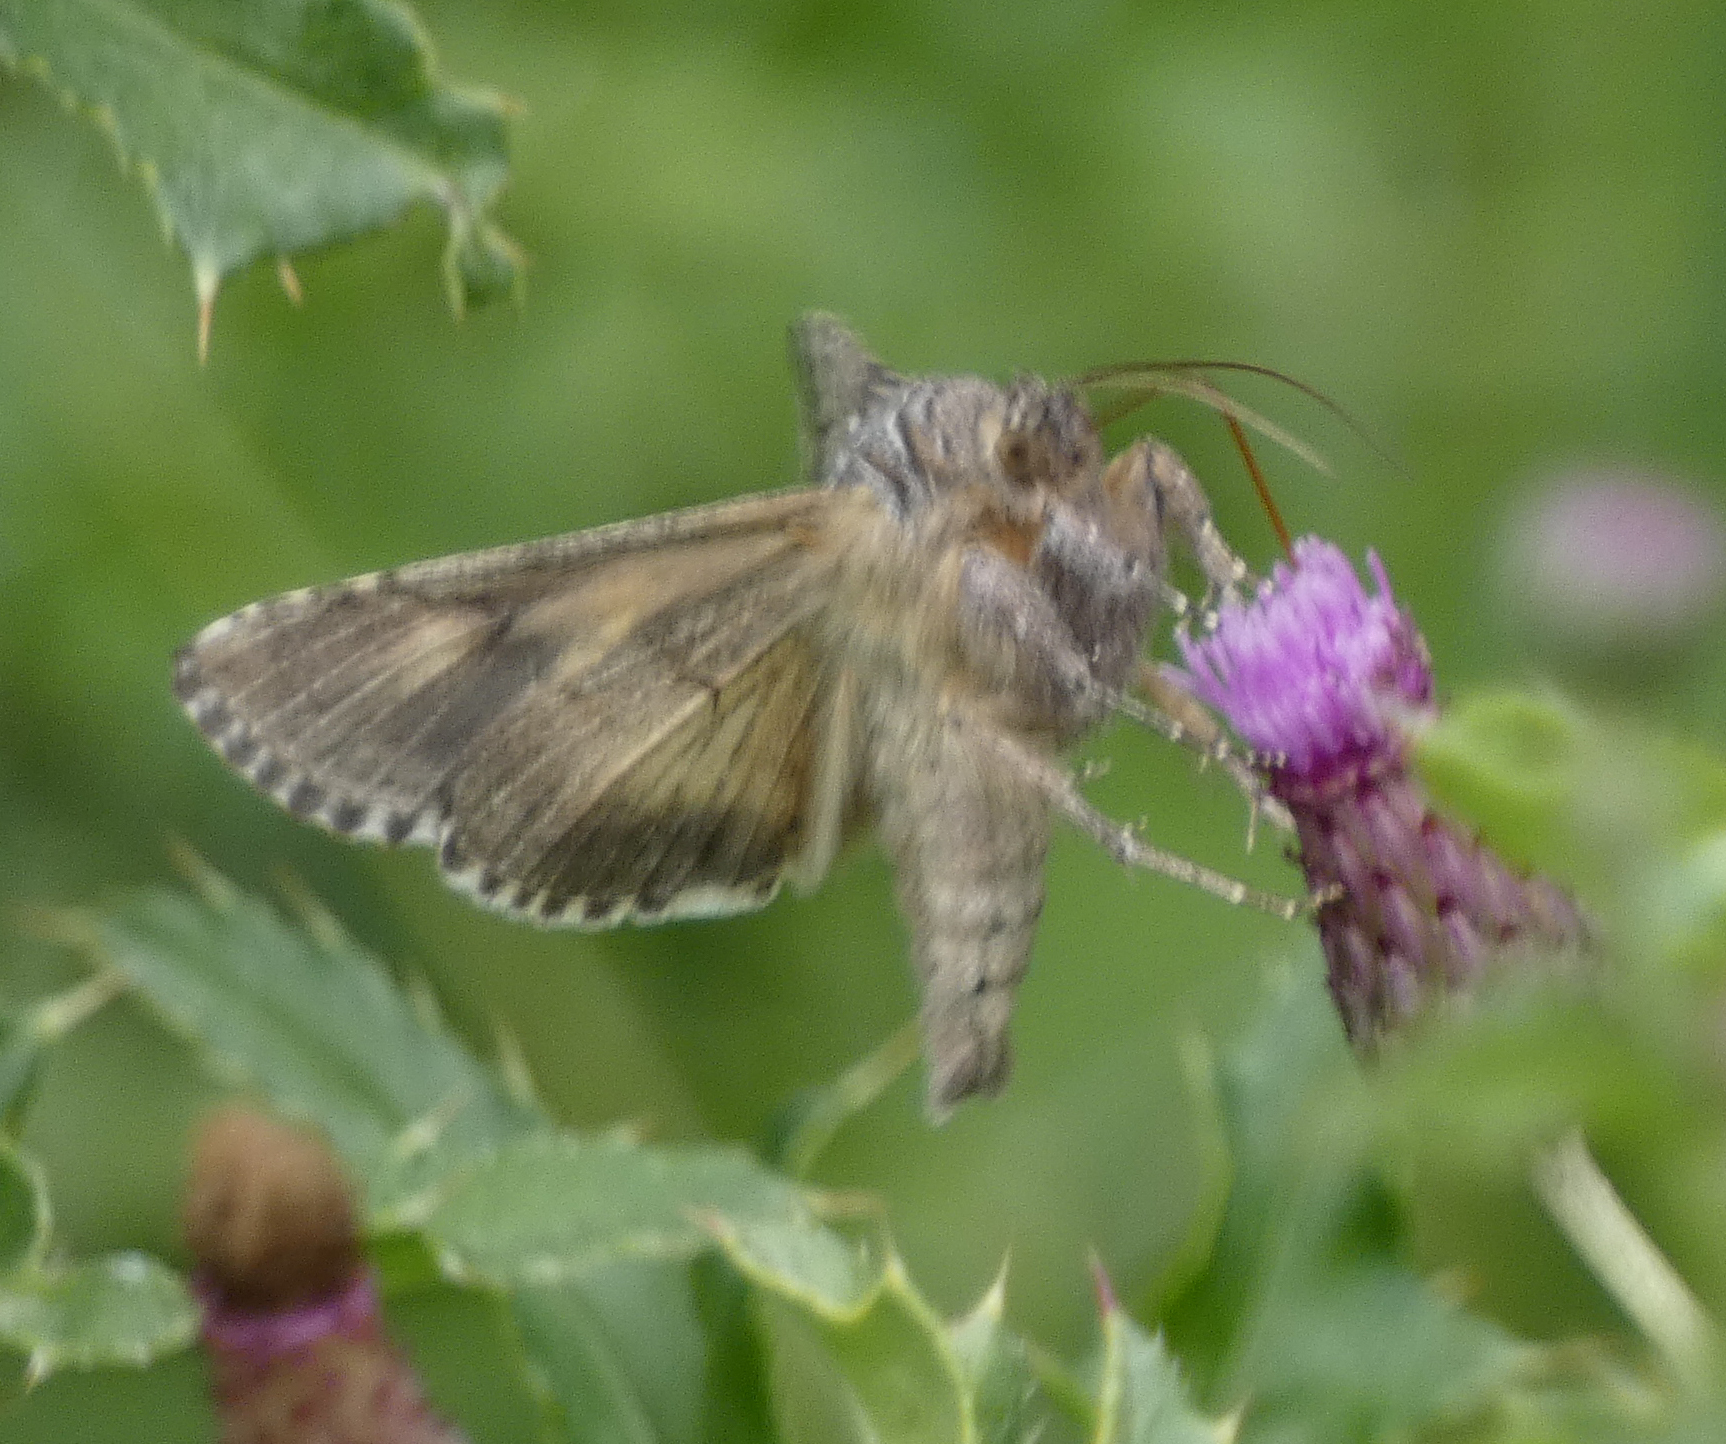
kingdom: Animalia
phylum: Arthropoda
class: Insecta
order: Lepidoptera
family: Noctuidae
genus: Autographa
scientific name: Autographa californica
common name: Alfalfa looper
